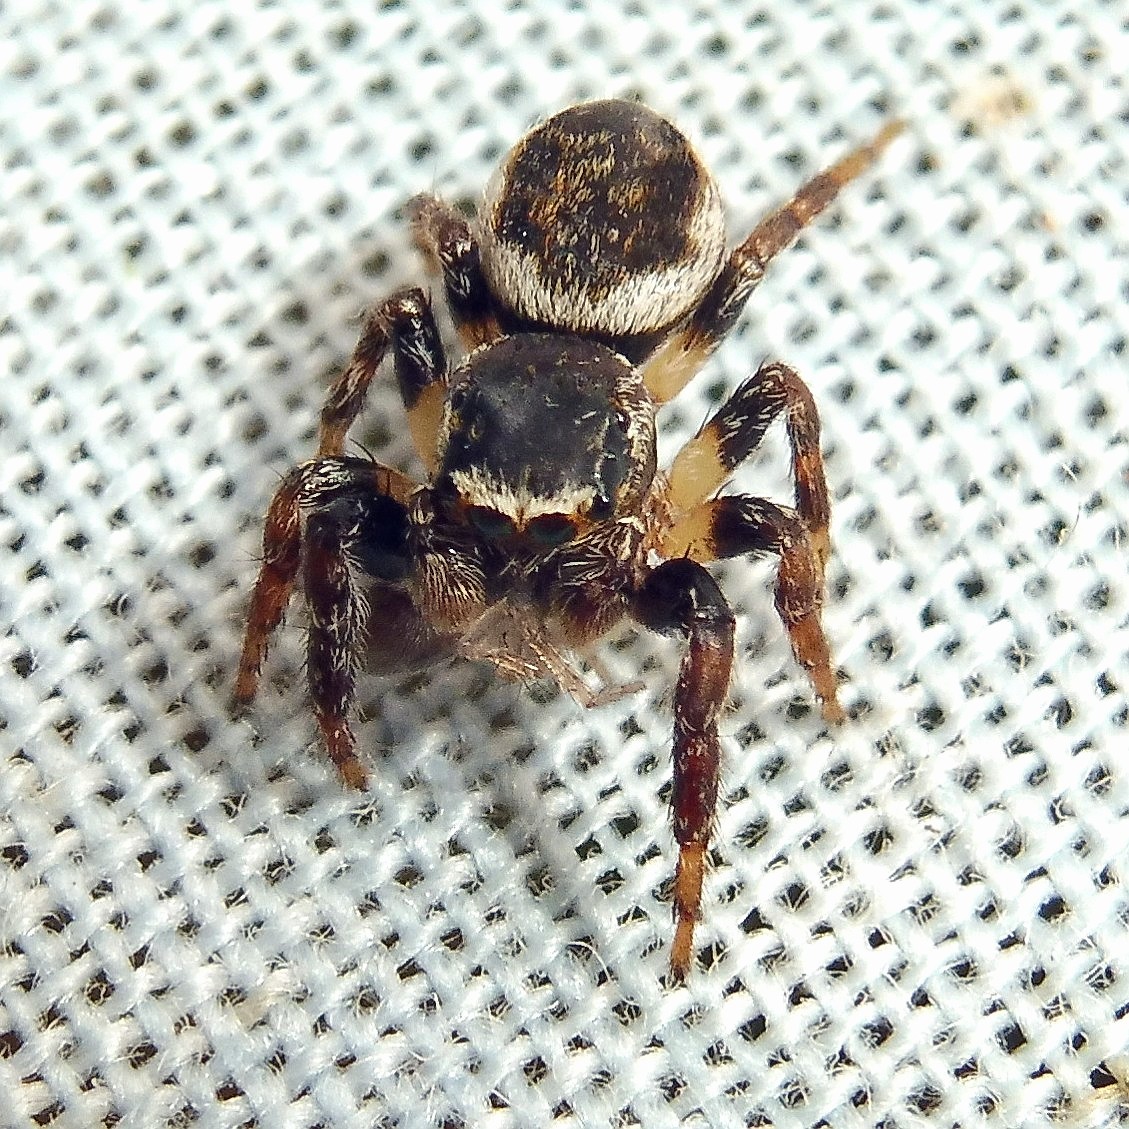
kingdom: Animalia
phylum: Arthropoda
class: Arachnida
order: Araneae
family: Salticidae
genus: Evarcha
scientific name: Evarcha falcata
